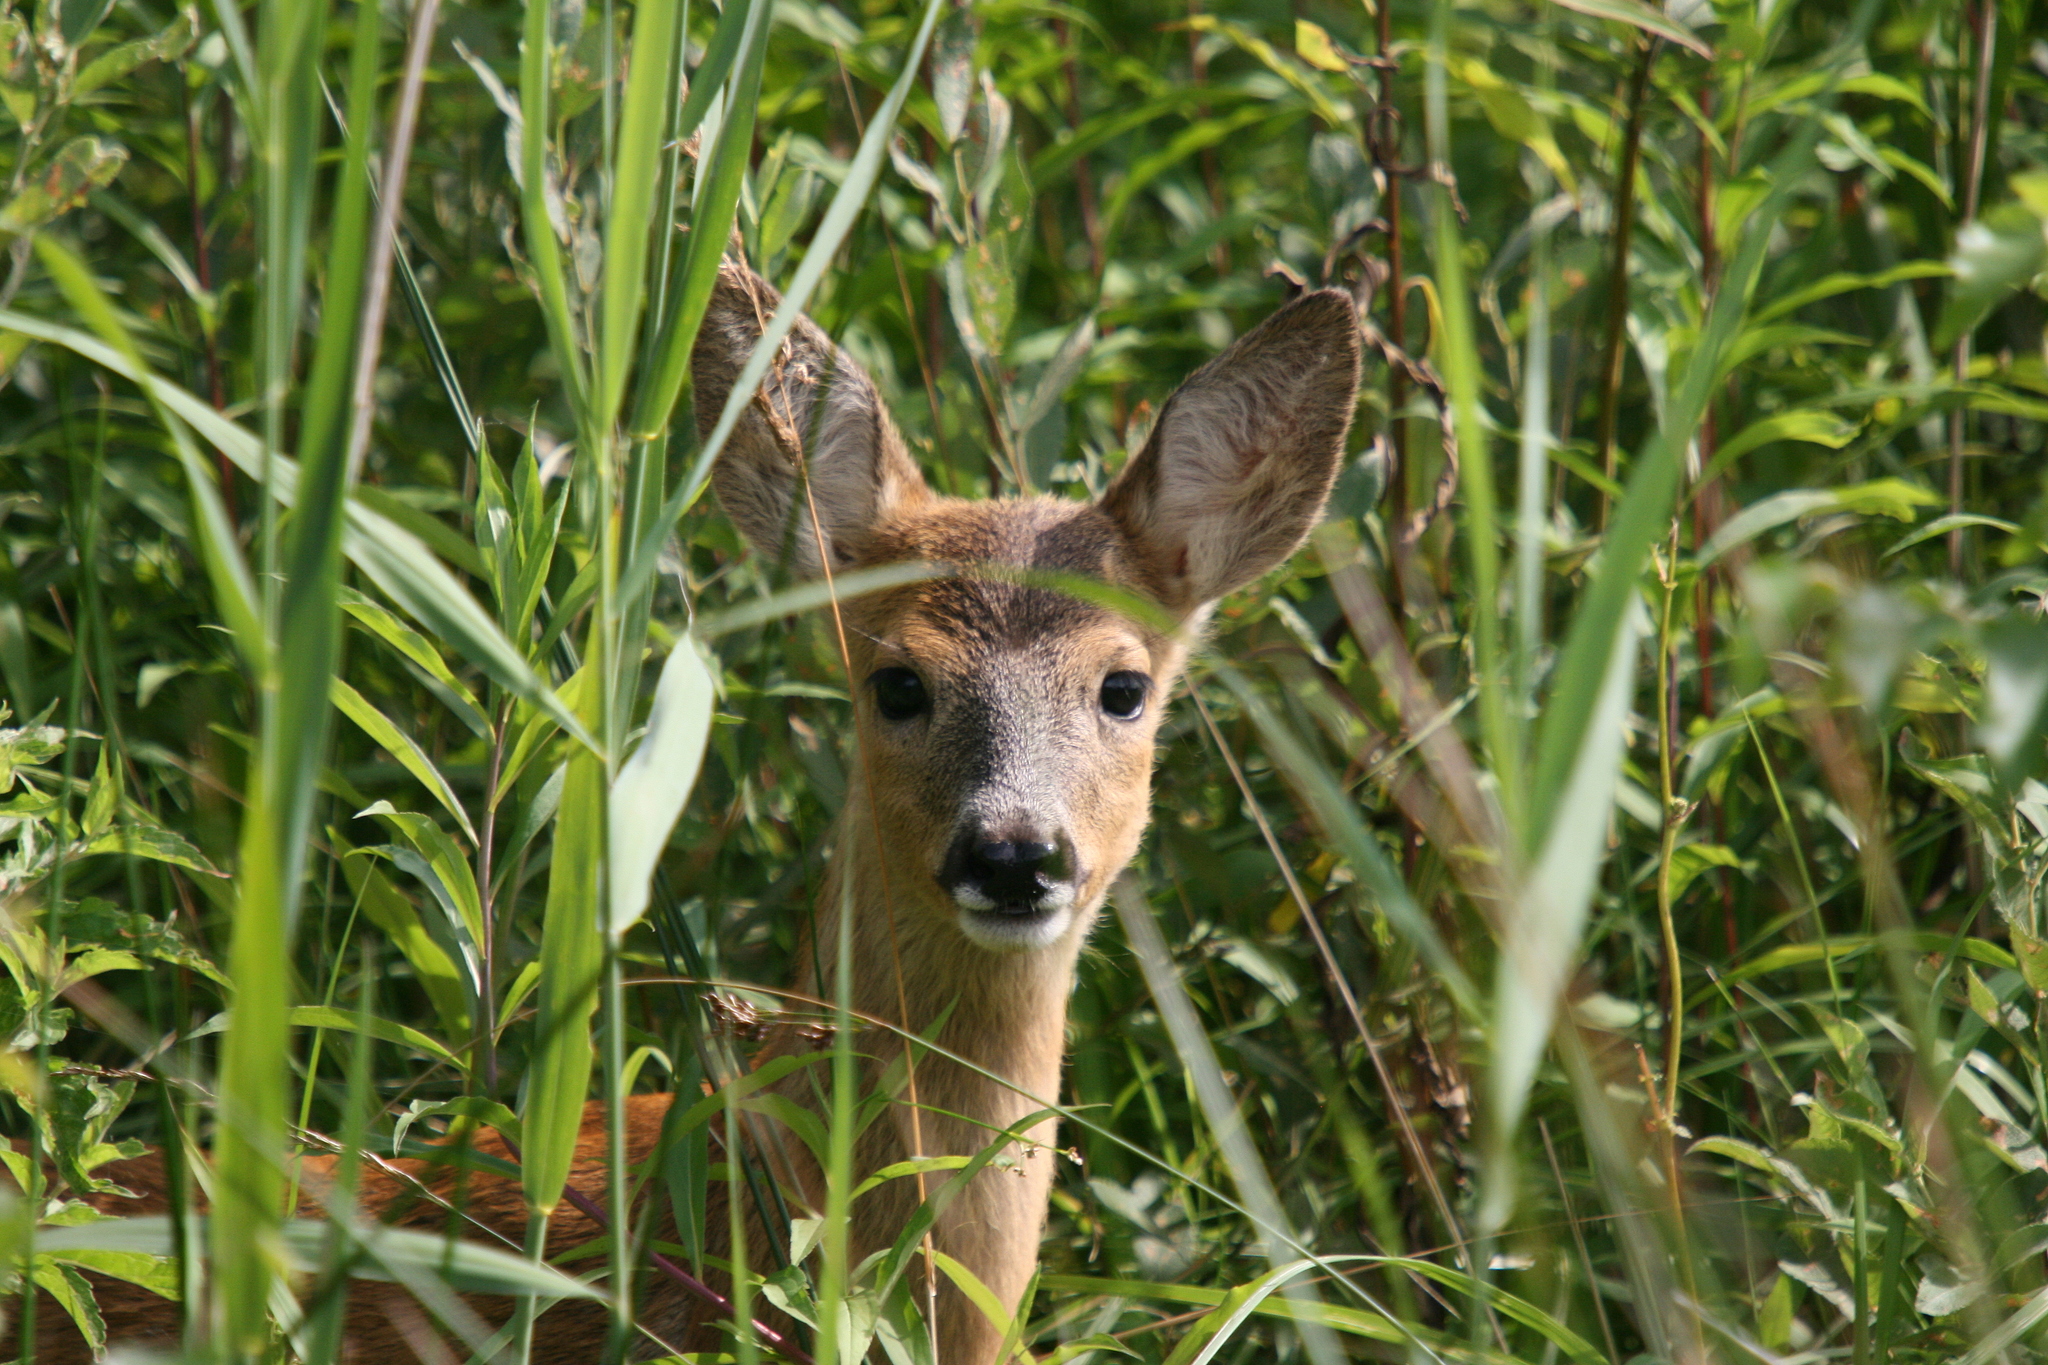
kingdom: Animalia
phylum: Chordata
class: Mammalia
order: Artiodactyla
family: Cervidae
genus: Capreolus
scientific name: Capreolus capreolus
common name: Western roe deer
